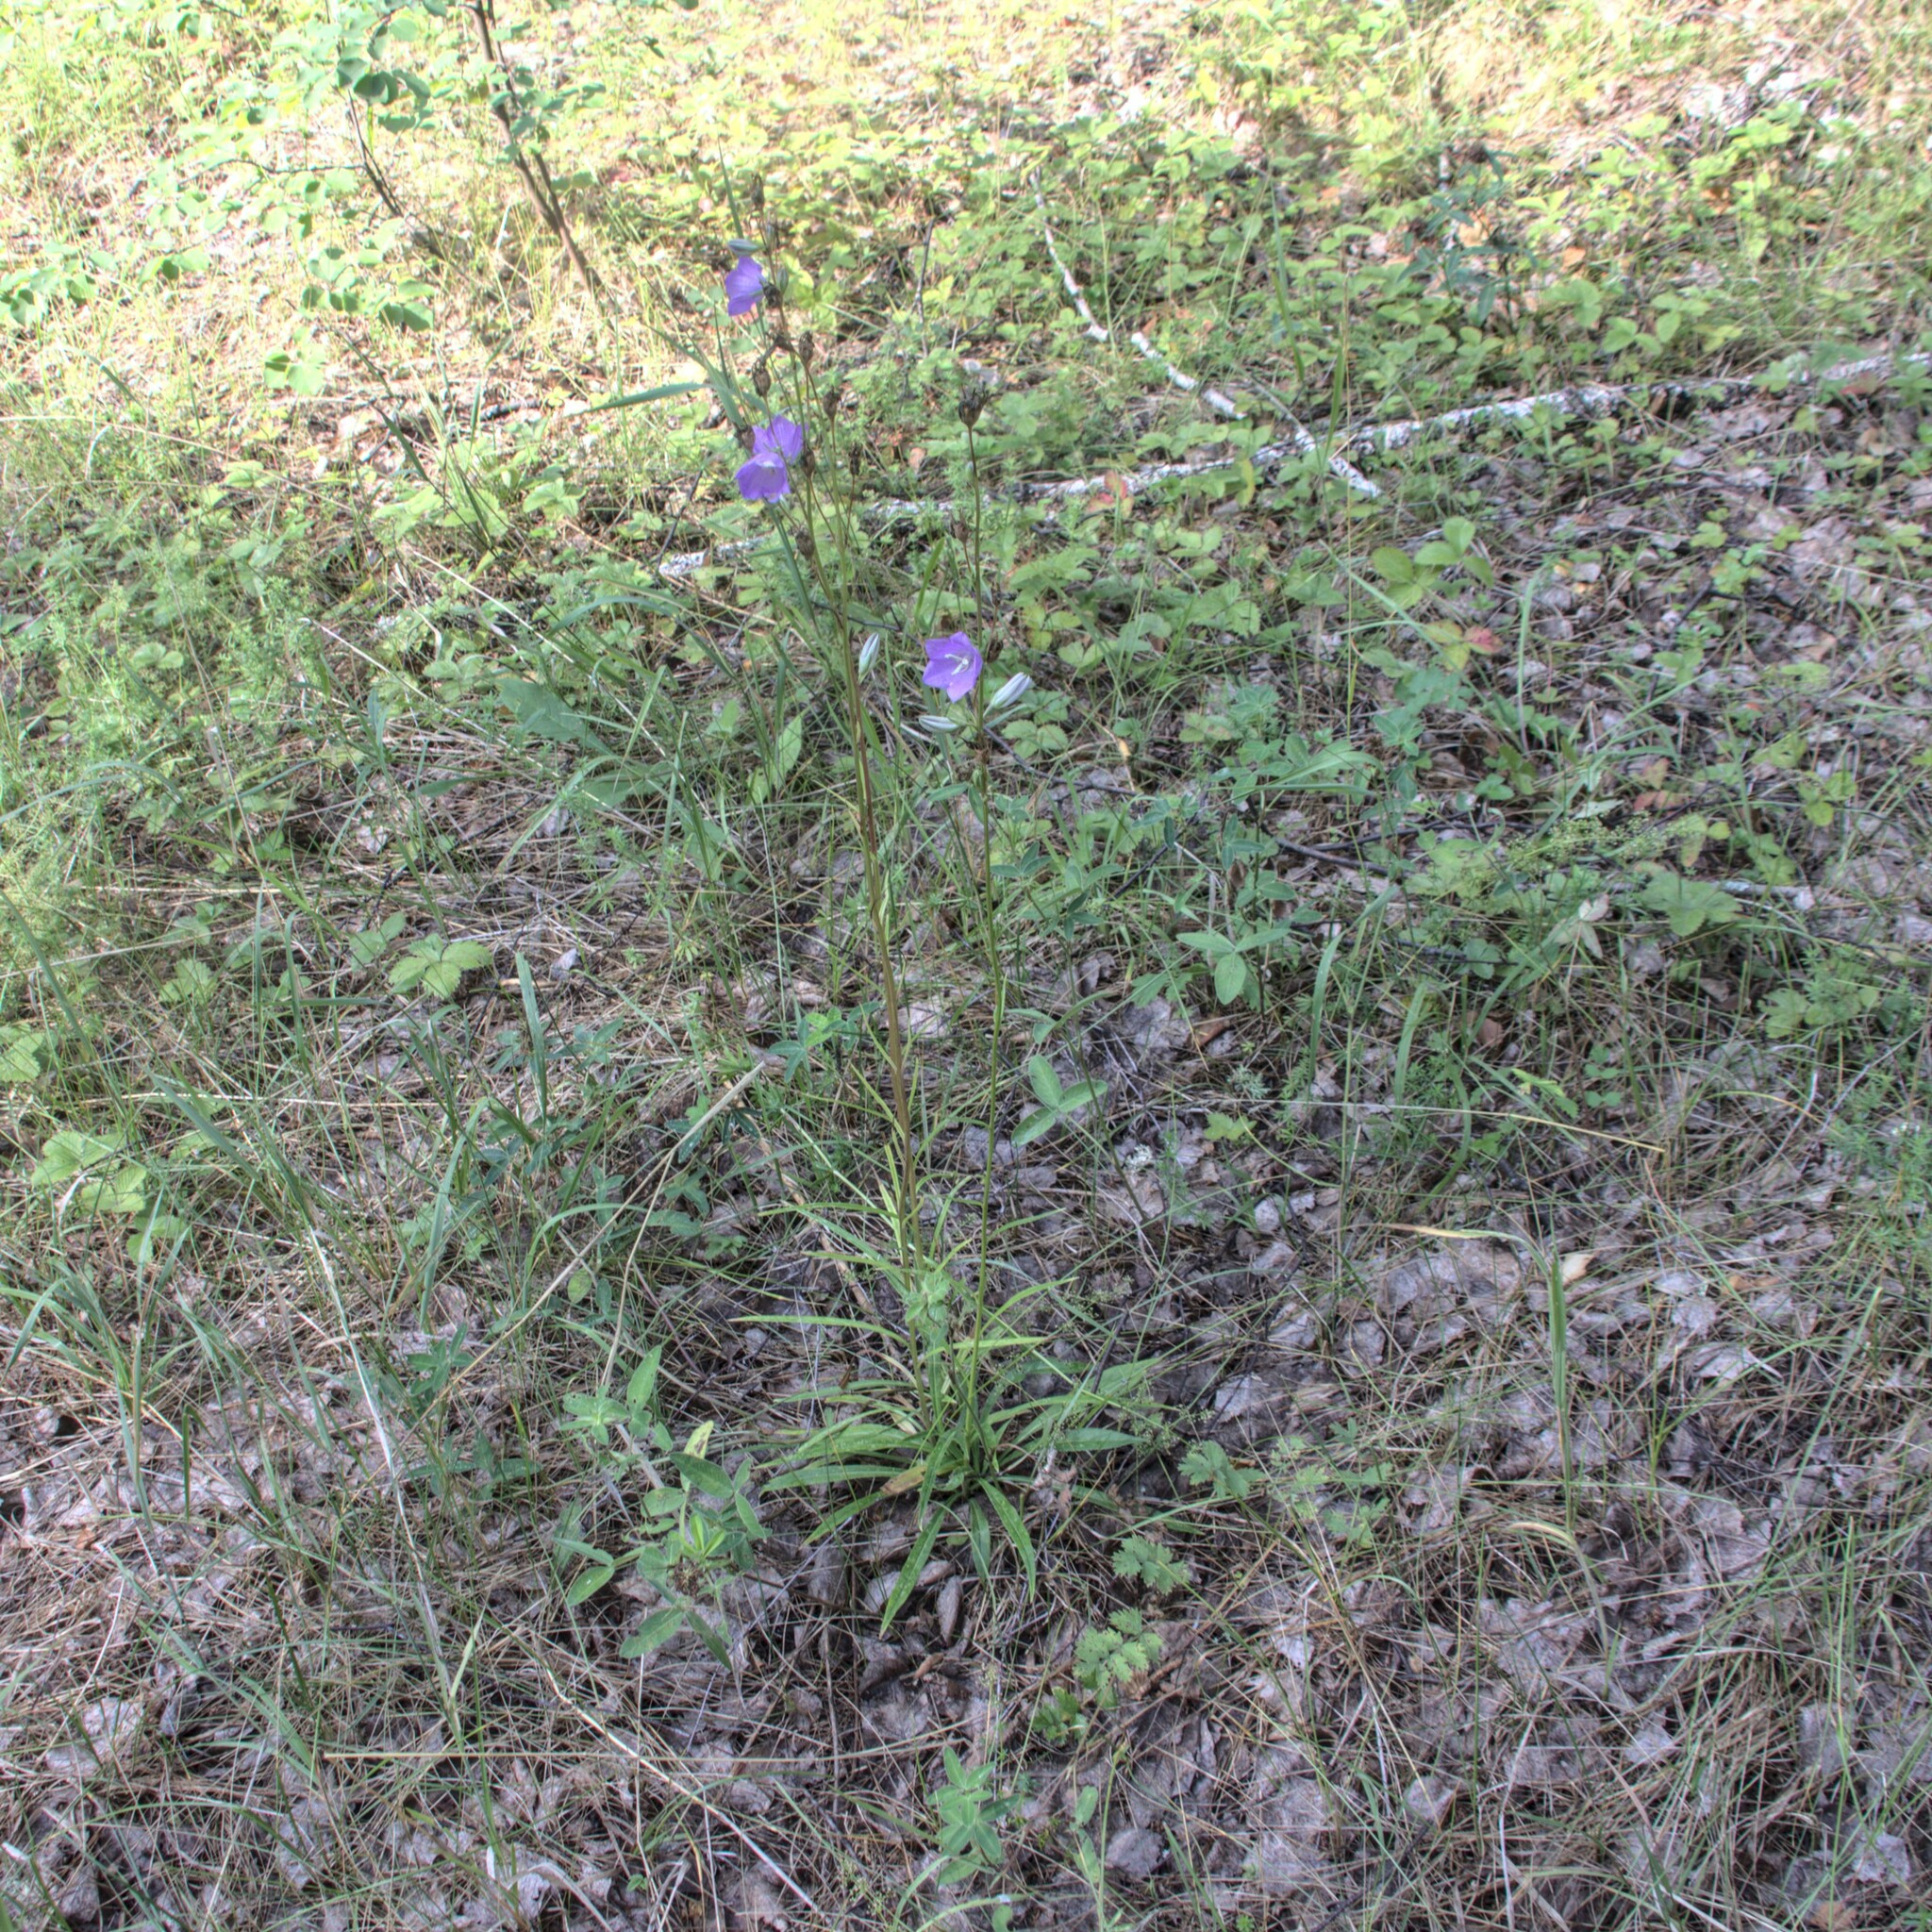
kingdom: Plantae
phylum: Tracheophyta
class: Magnoliopsida
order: Asterales
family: Campanulaceae
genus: Campanula
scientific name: Campanula persicifolia
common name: Peach-leaved bellflower
